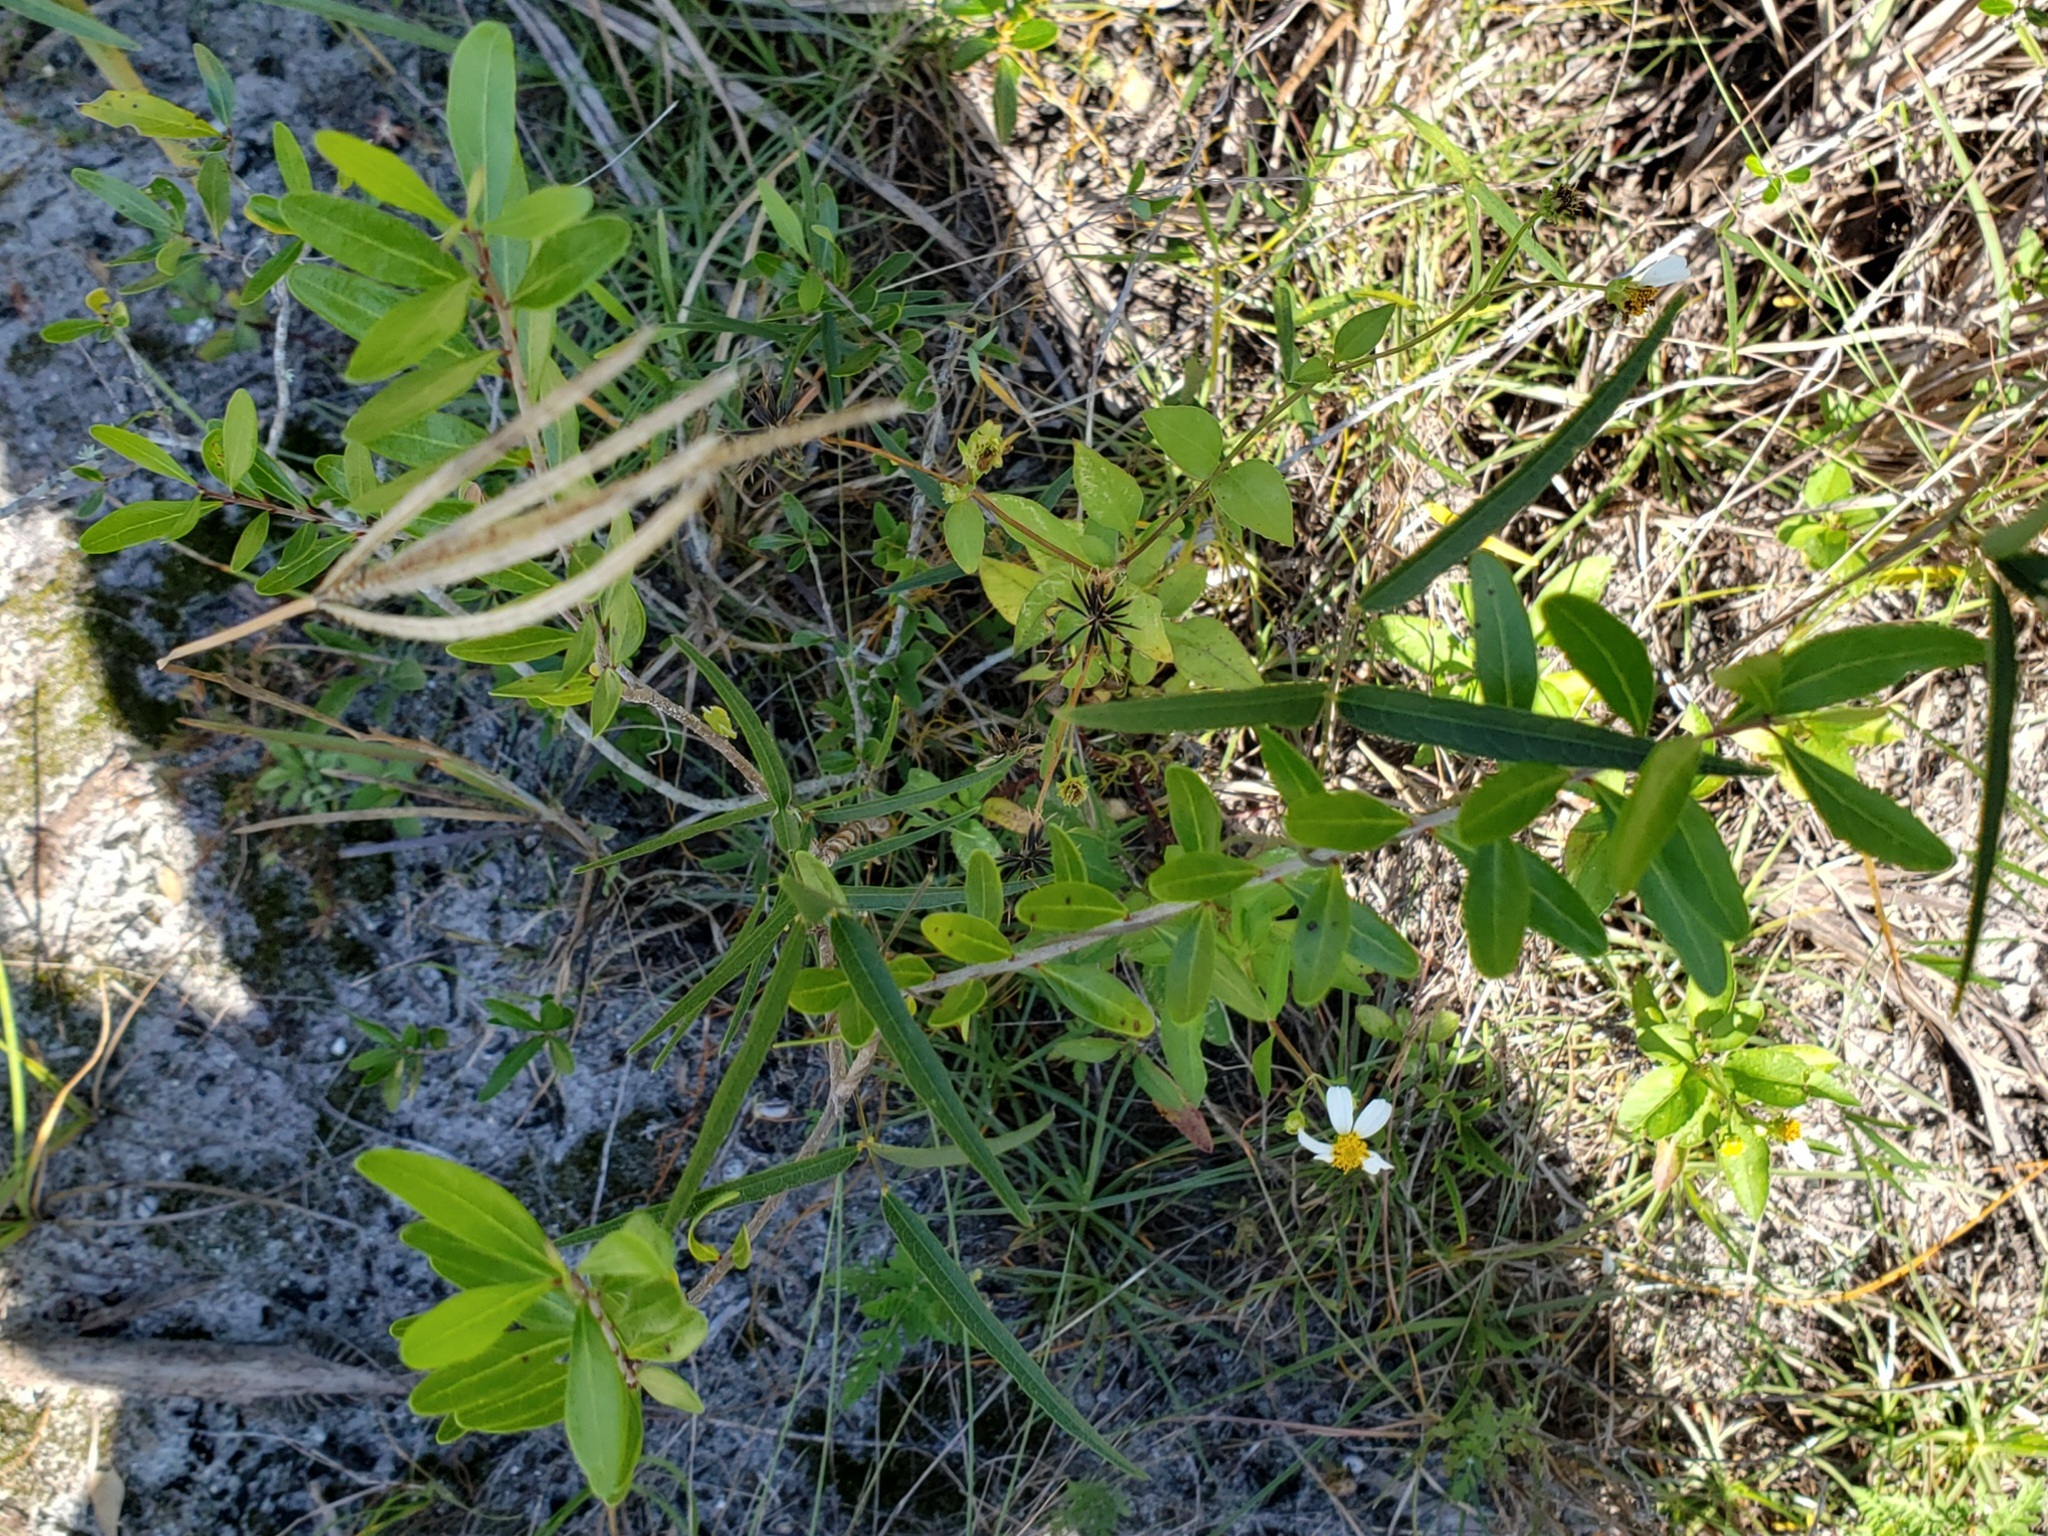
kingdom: Plantae
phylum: Tracheophyta
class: Magnoliopsida
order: Lamiales
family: Oleaceae
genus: Forestiera
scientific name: Forestiera segregata
